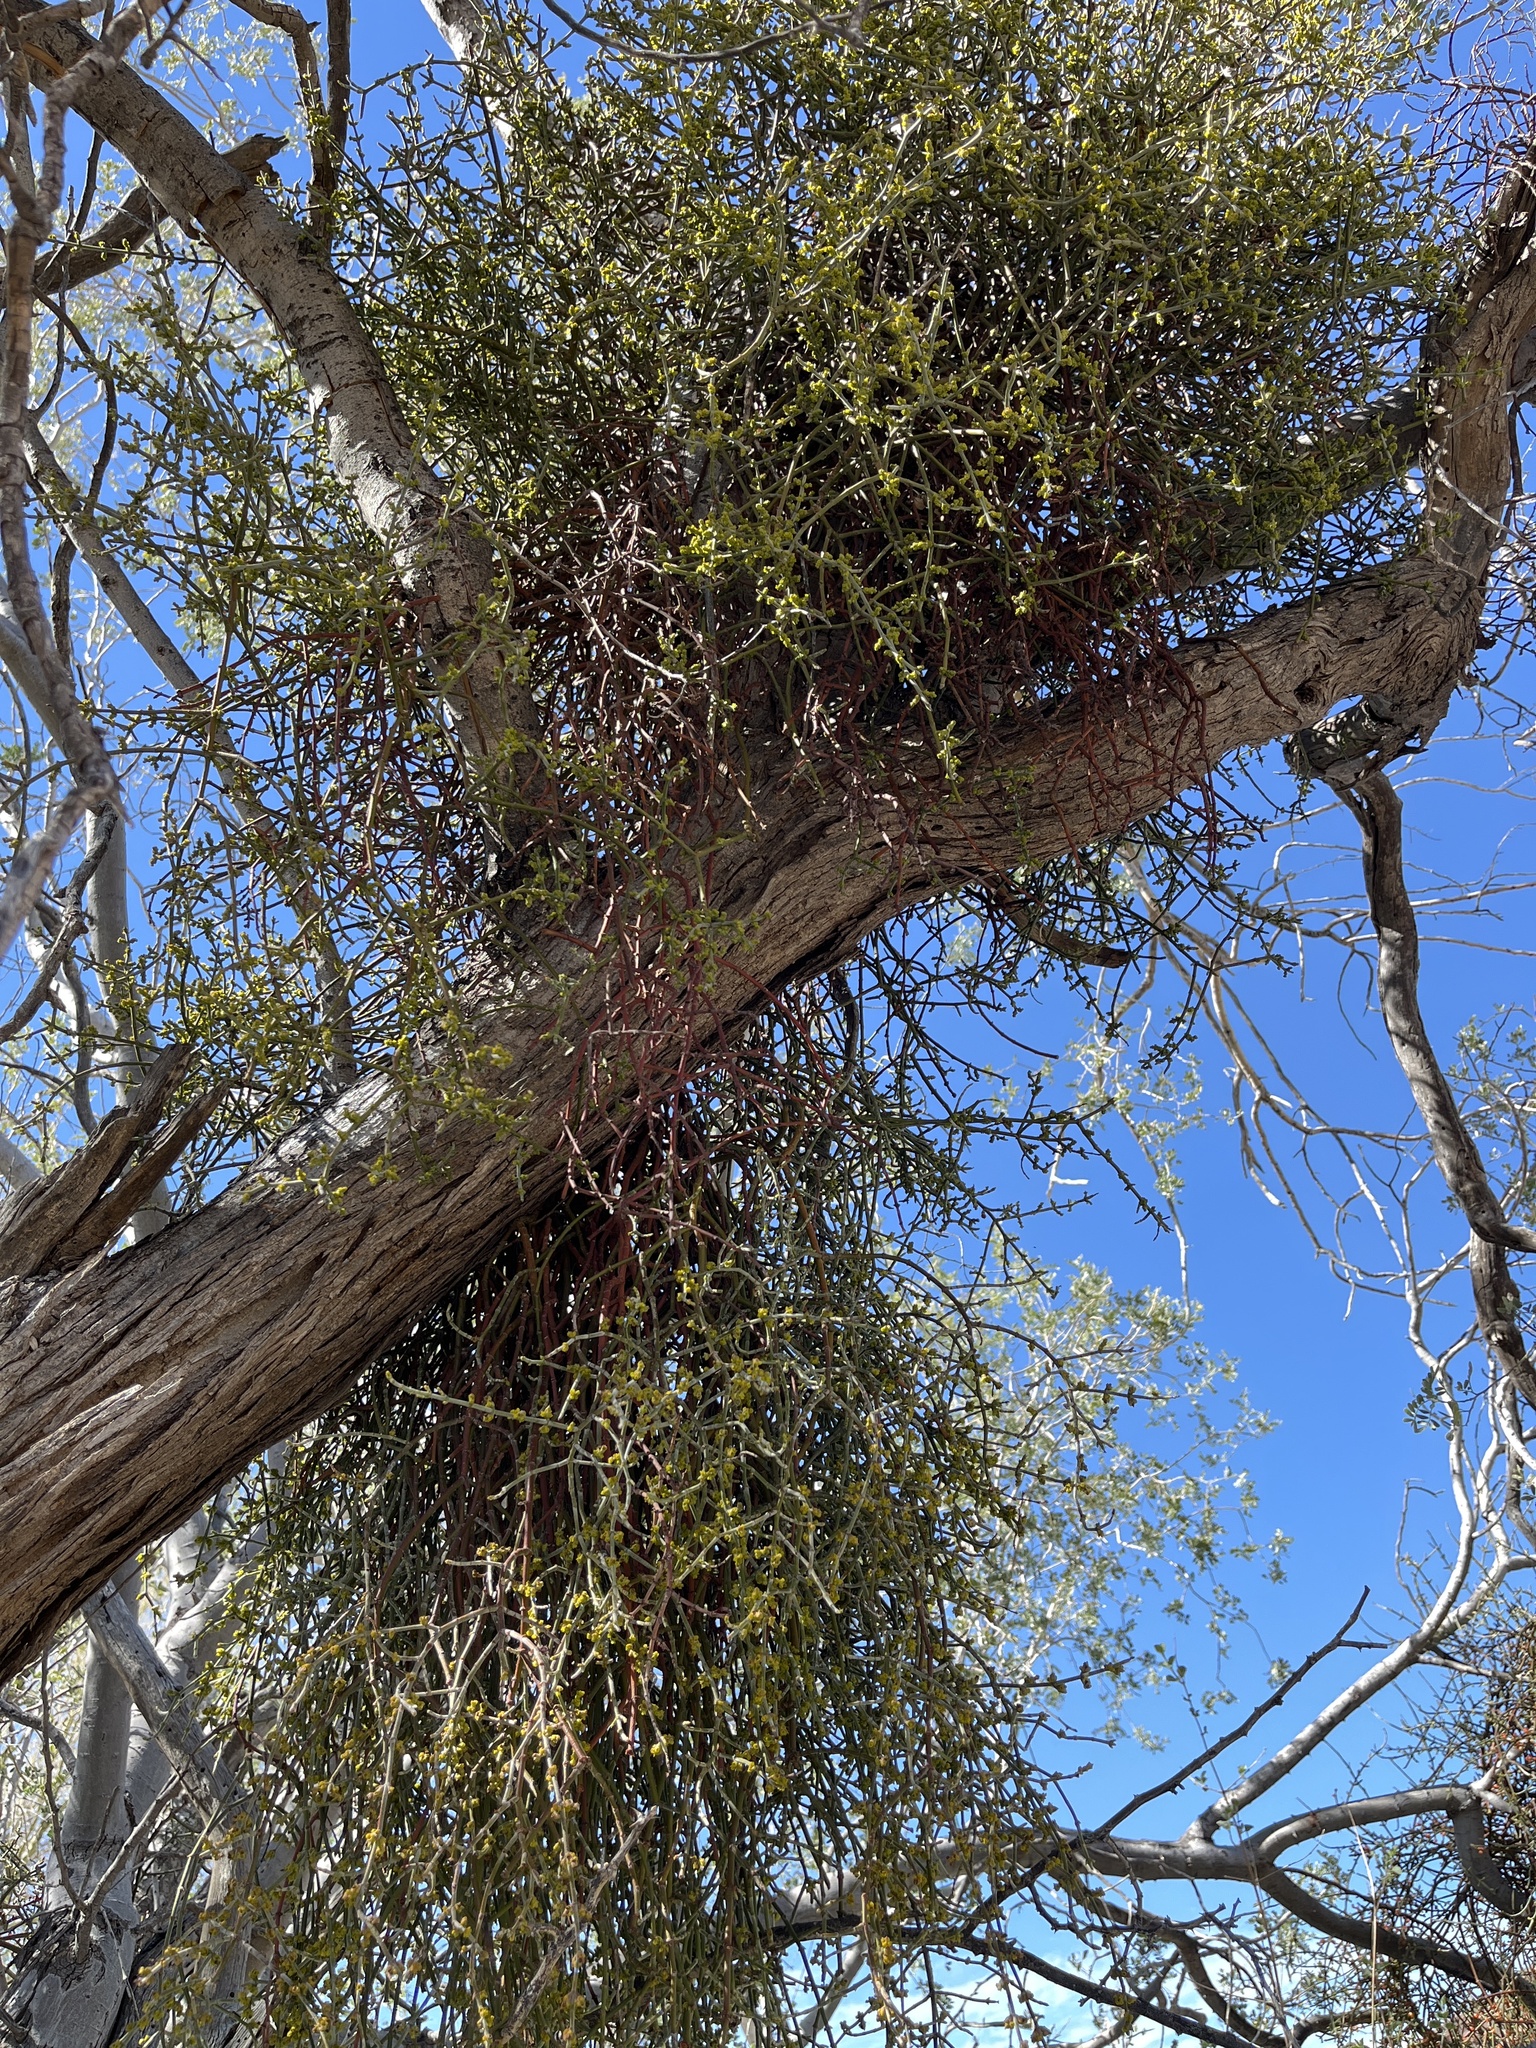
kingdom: Plantae
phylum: Tracheophyta
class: Magnoliopsida
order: Santalales
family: Viscaceae
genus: Phoradendron
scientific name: Phoradendron californicum
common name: Acacia mistletoe
